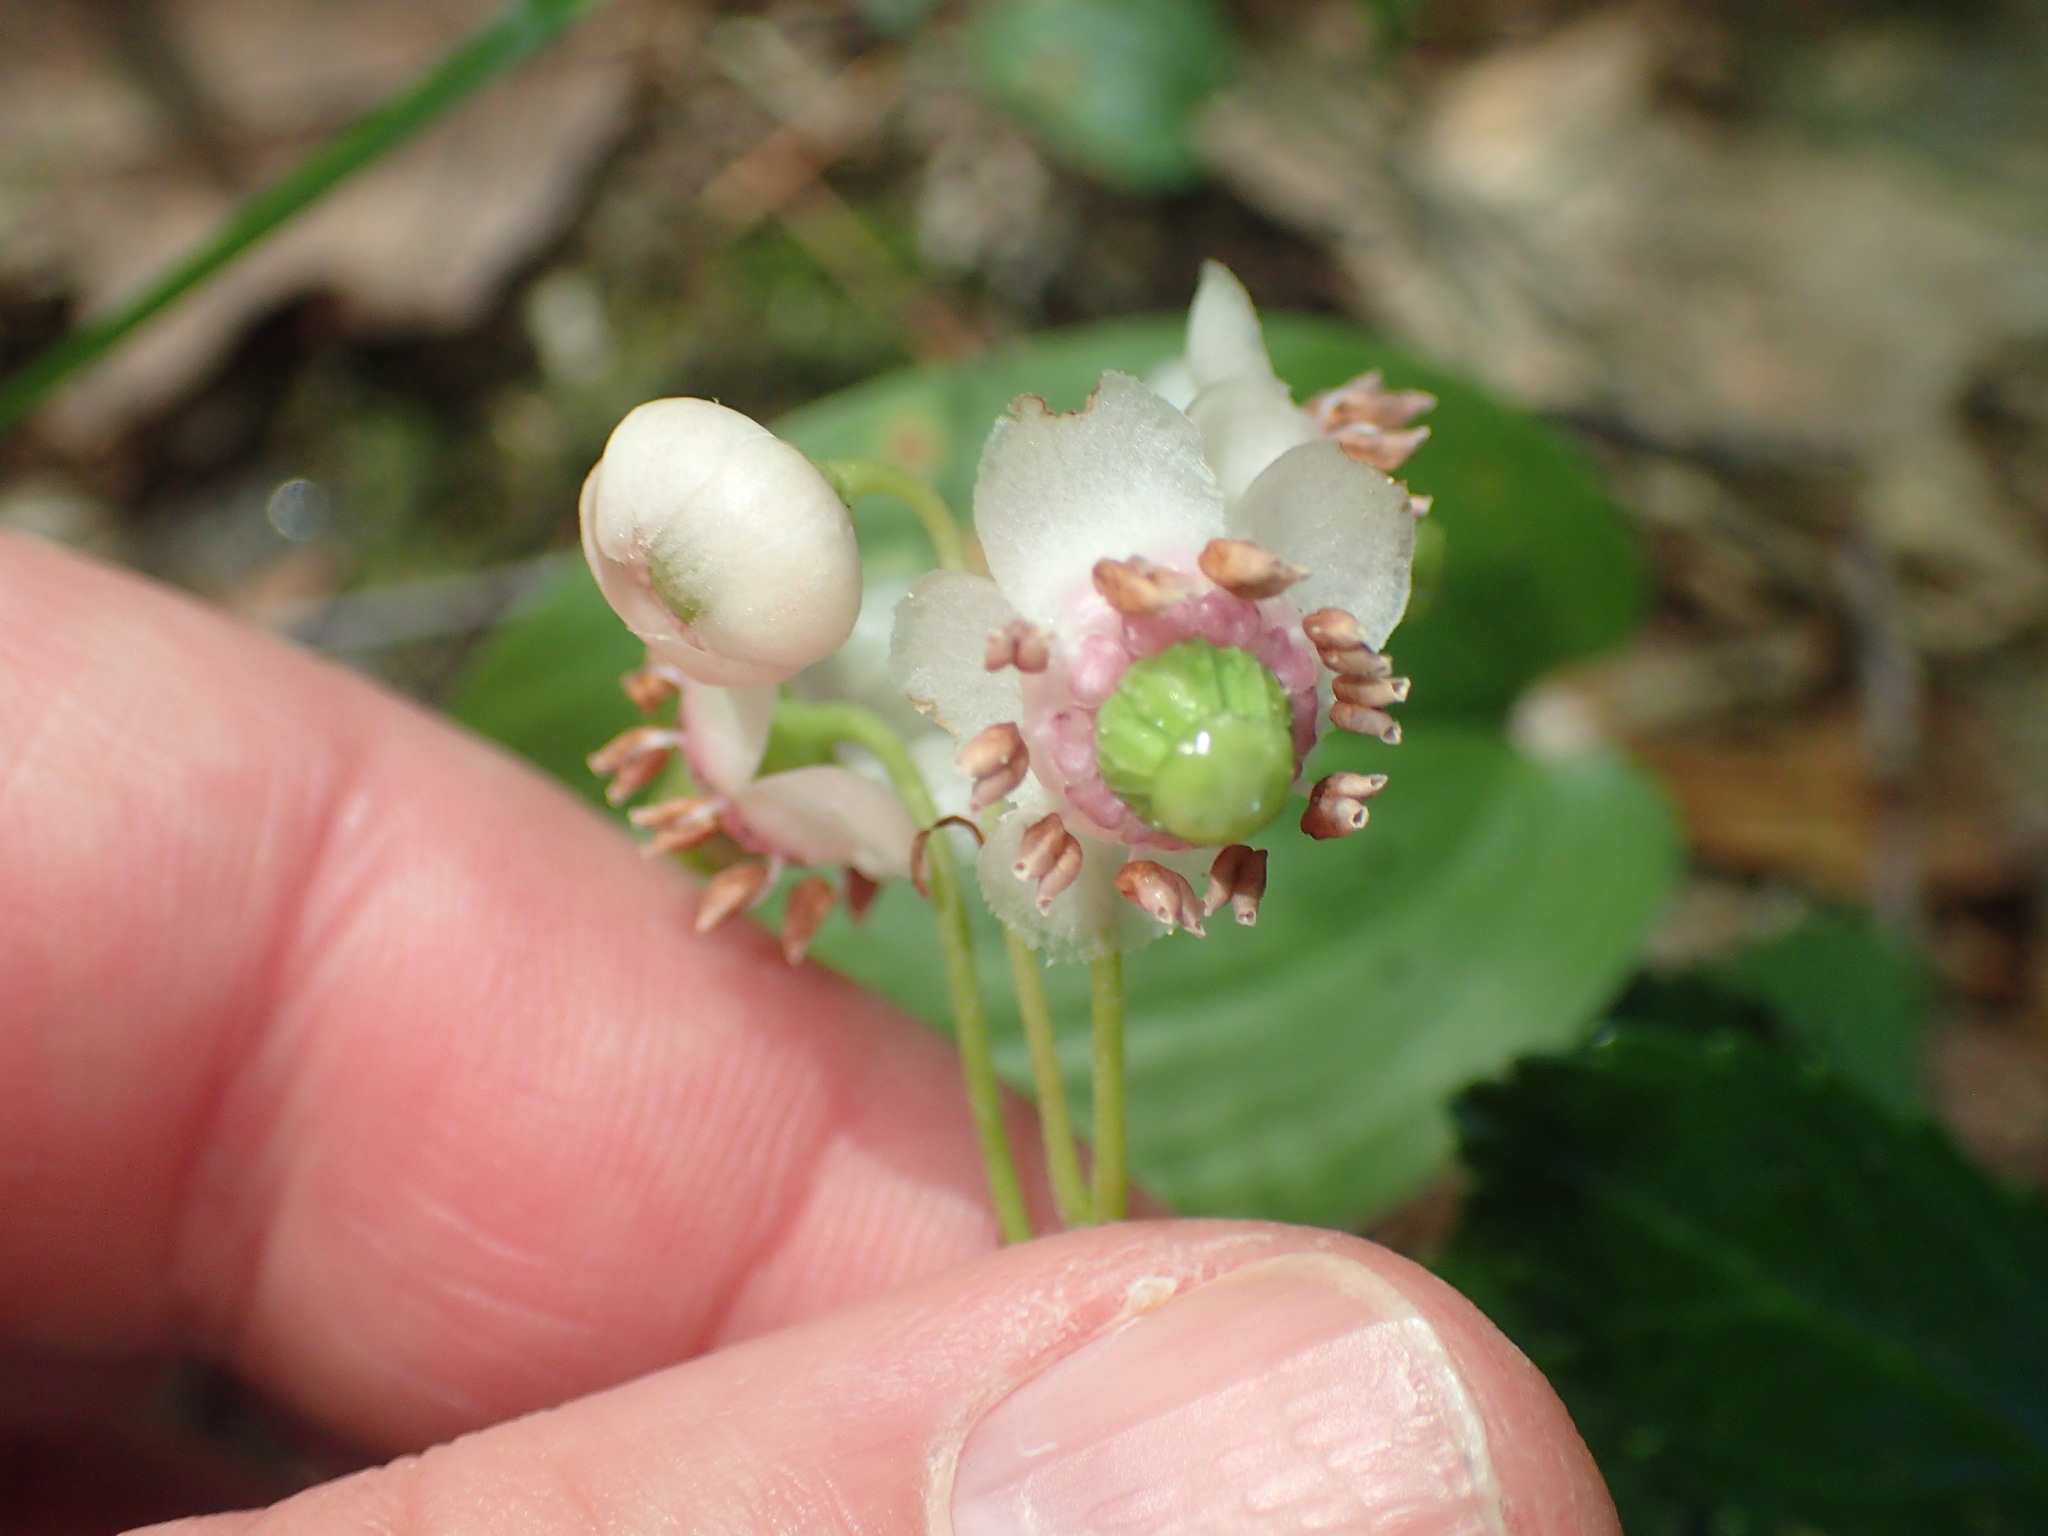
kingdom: Plantae
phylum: Tracheophyta
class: Magnoliopsida
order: Ericales
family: Ericaceae
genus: Chimaphila
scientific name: Chimaphila umbellata
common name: Pipsissewa
